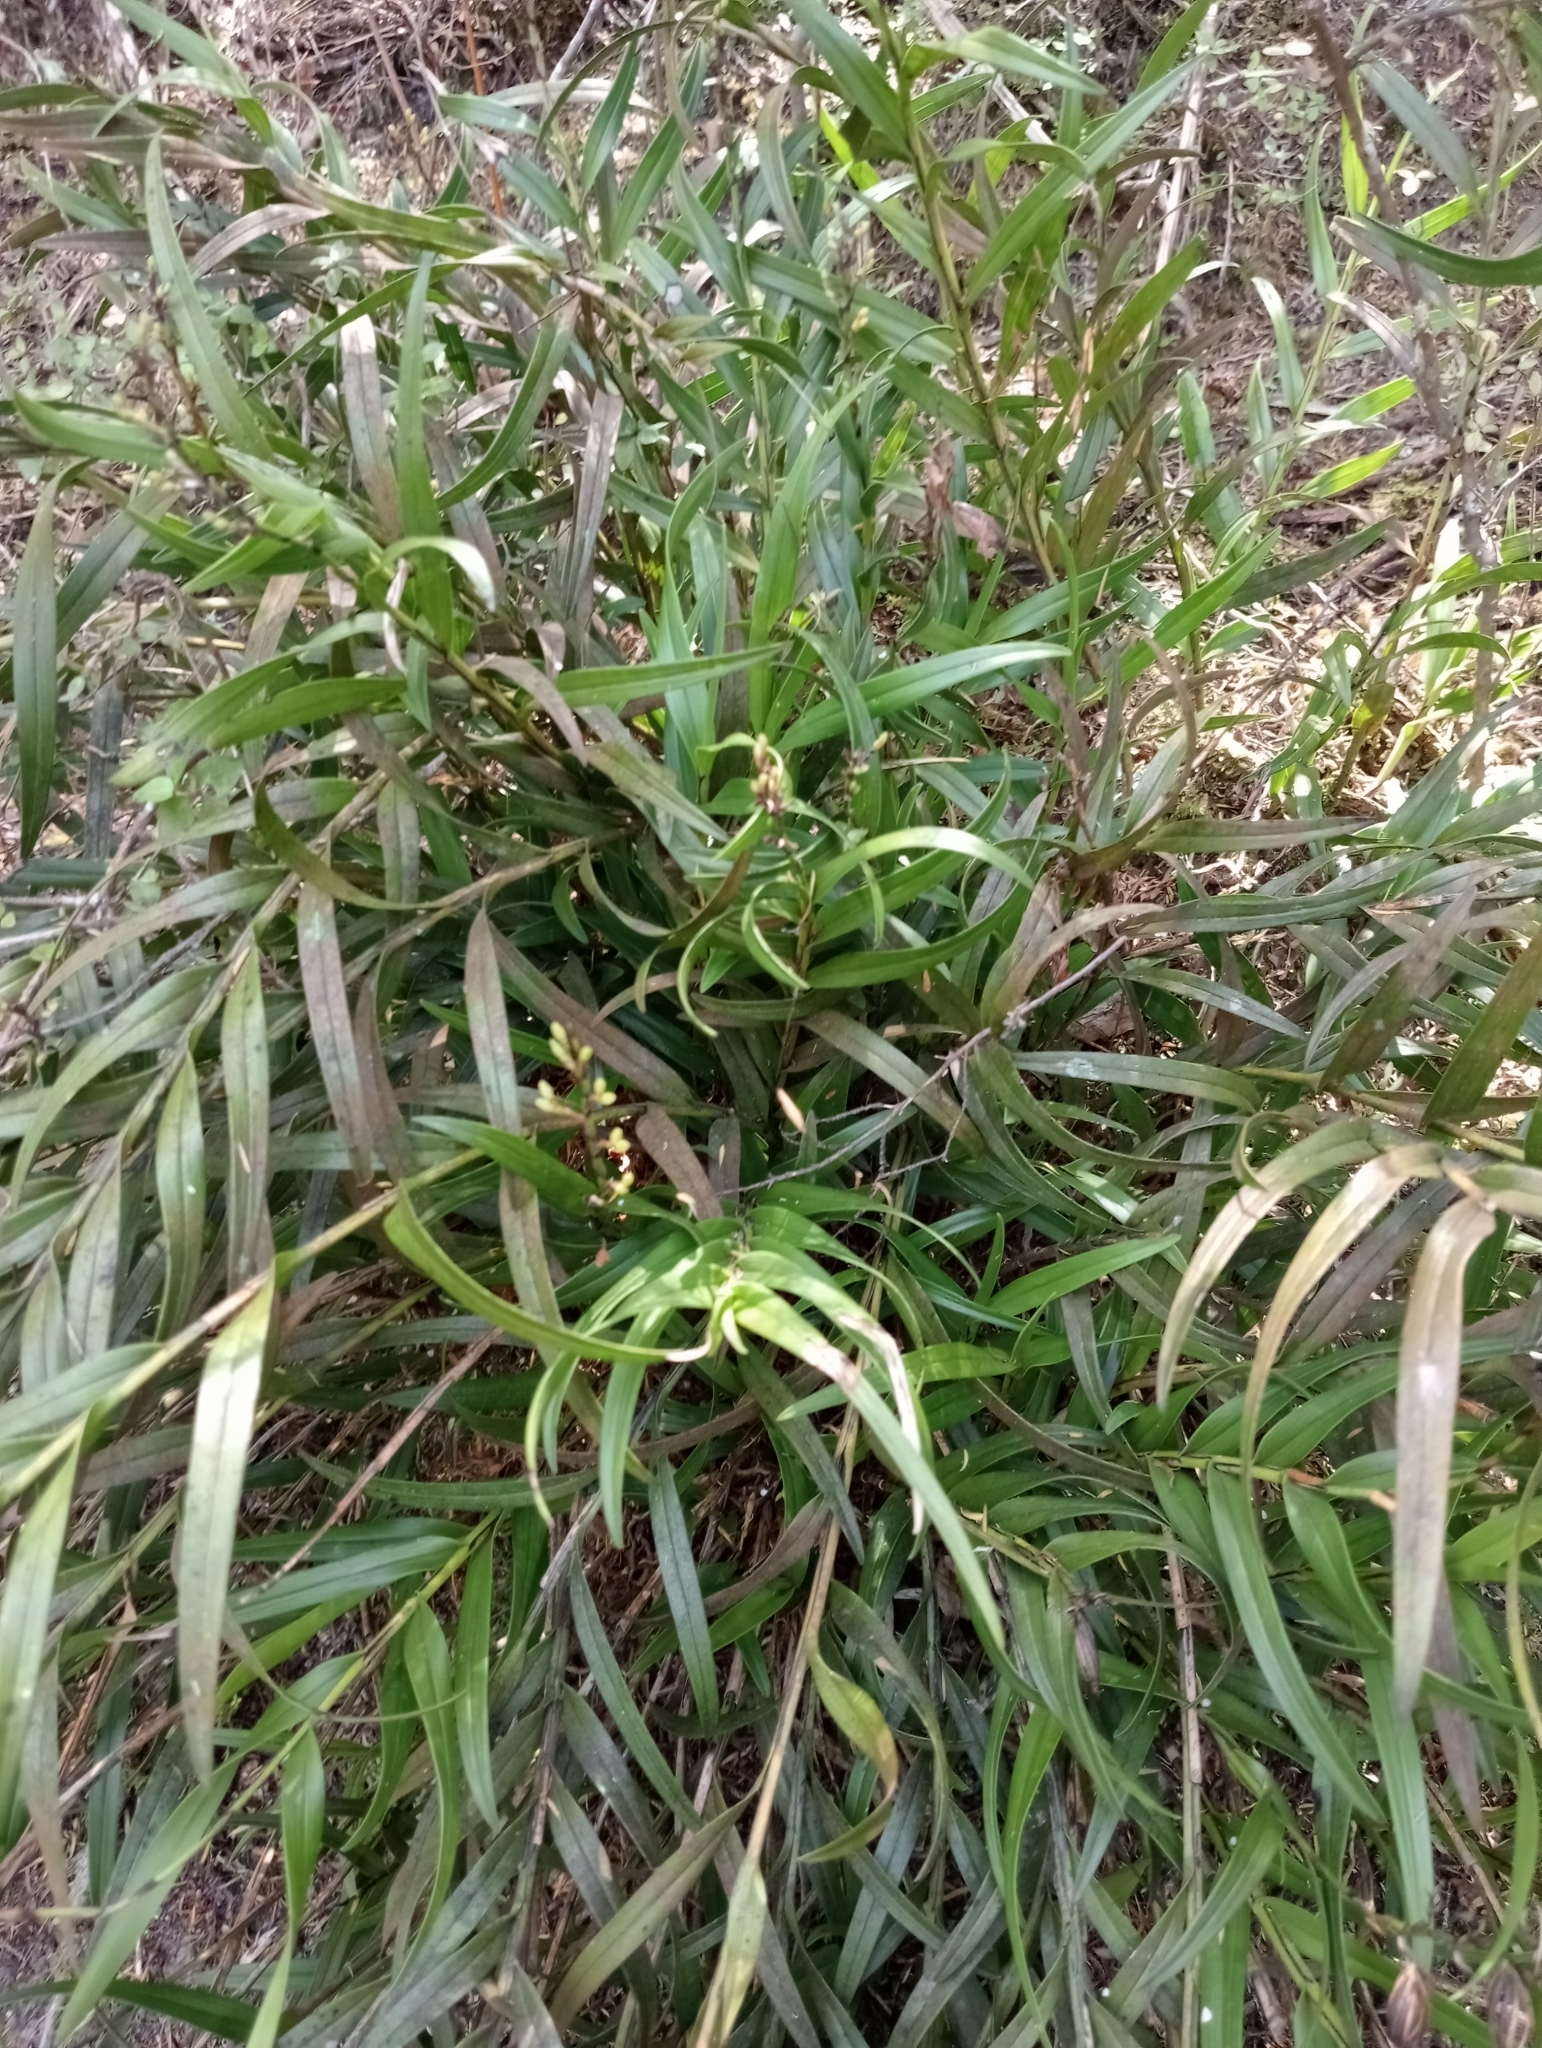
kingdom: Plantae
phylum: Tracheophyta
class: Liliopsida
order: Asparagales
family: Orchidaceae
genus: Earina
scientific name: Earina autumnalis
